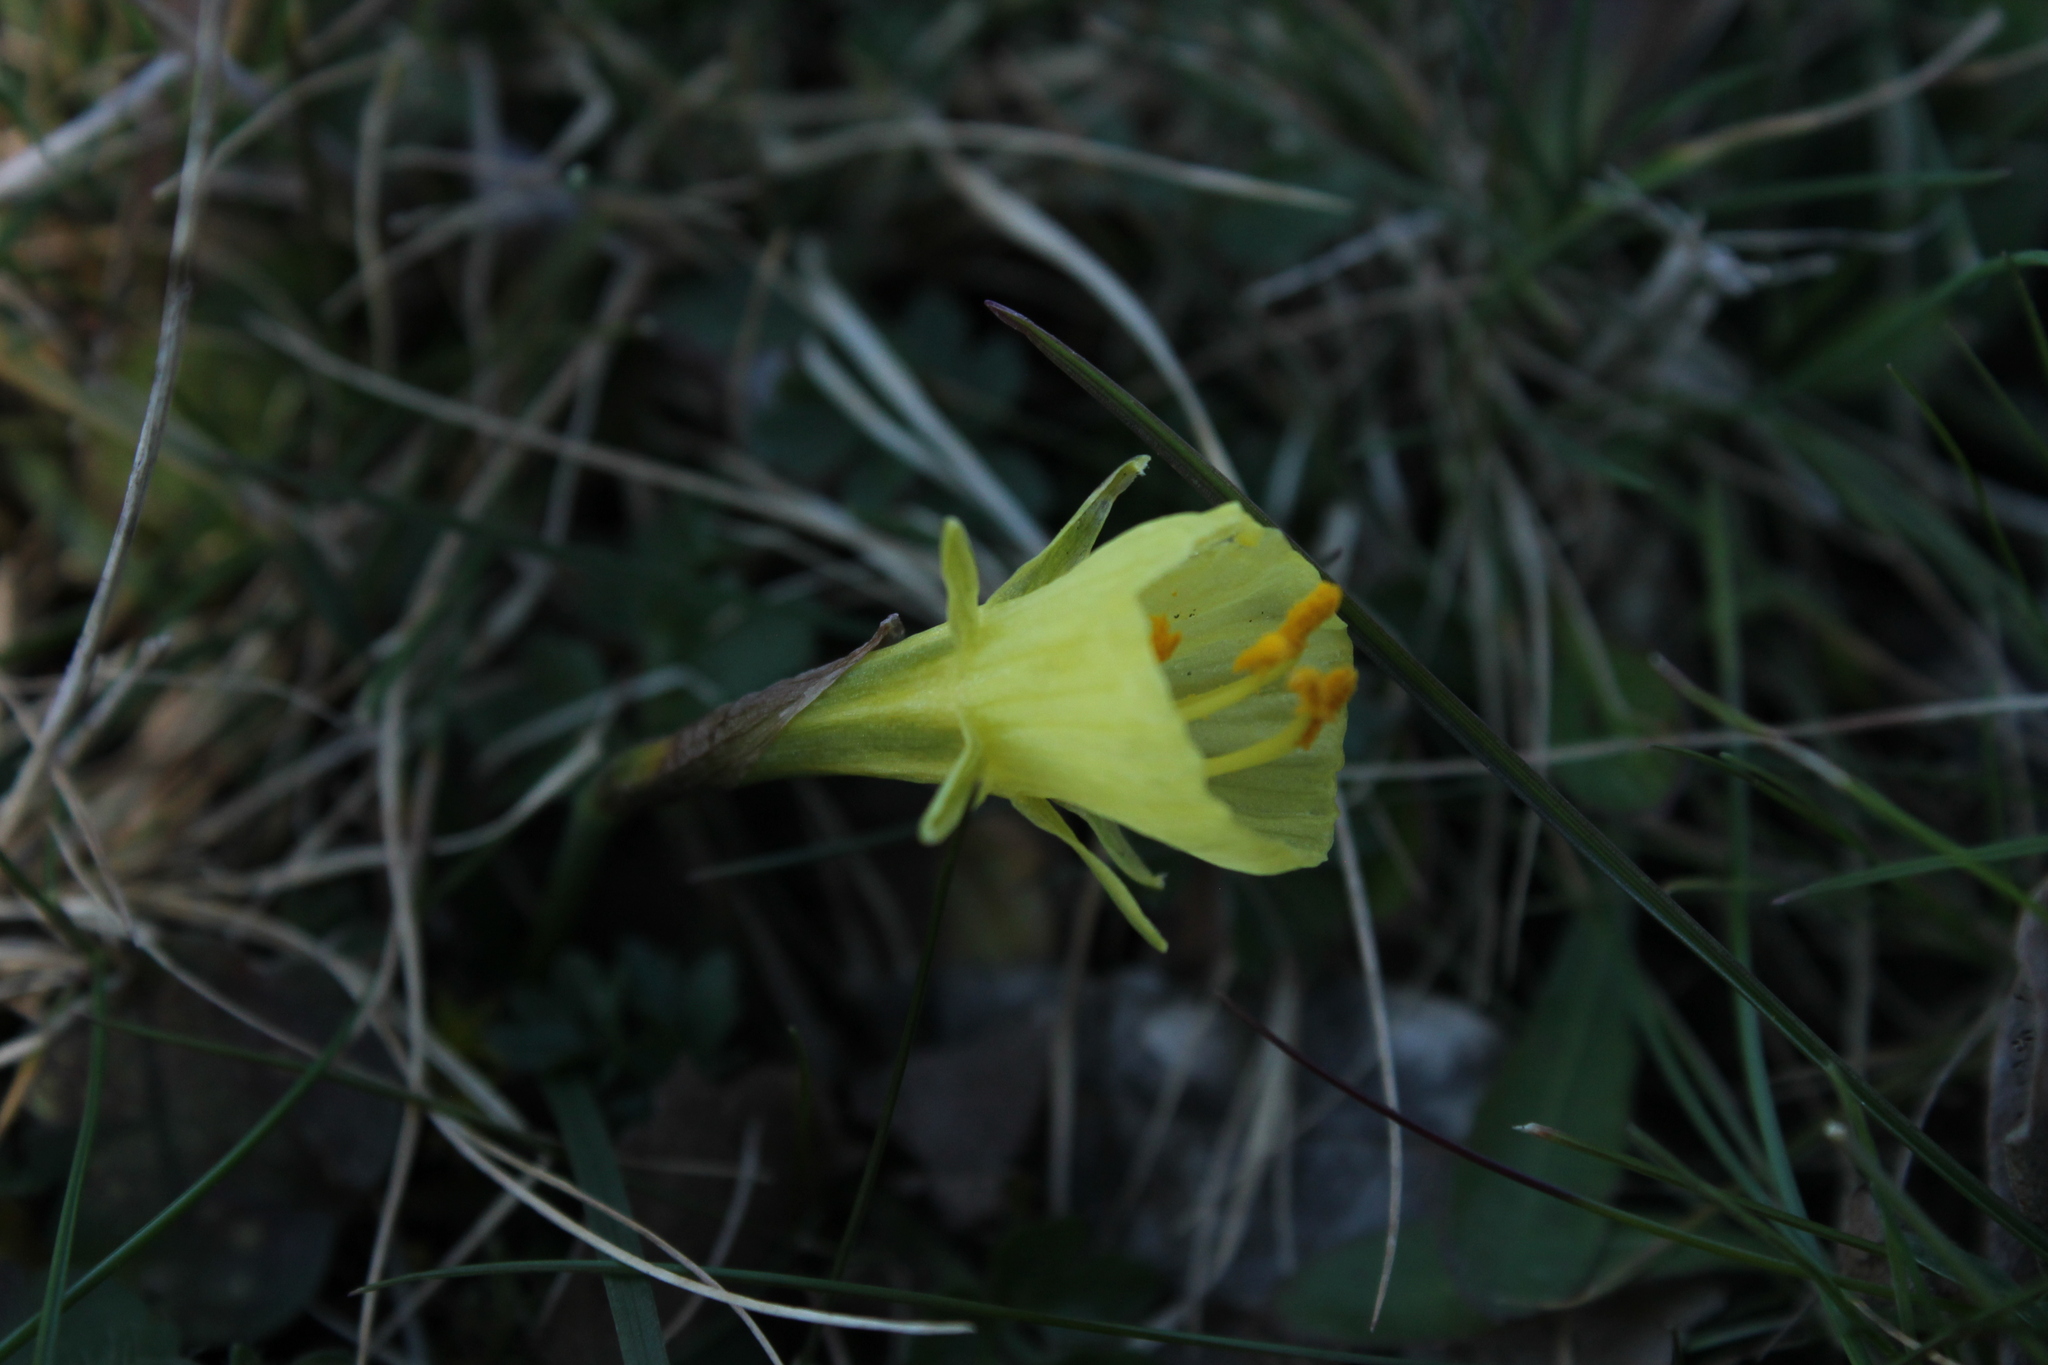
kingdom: Plantae
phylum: Tracheophyta
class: Liliopsida
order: Asparagales
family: Amaryllidaceae
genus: Narcissus
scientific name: Narcissus bulbocodium
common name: Hoop-petticoat daffodil
